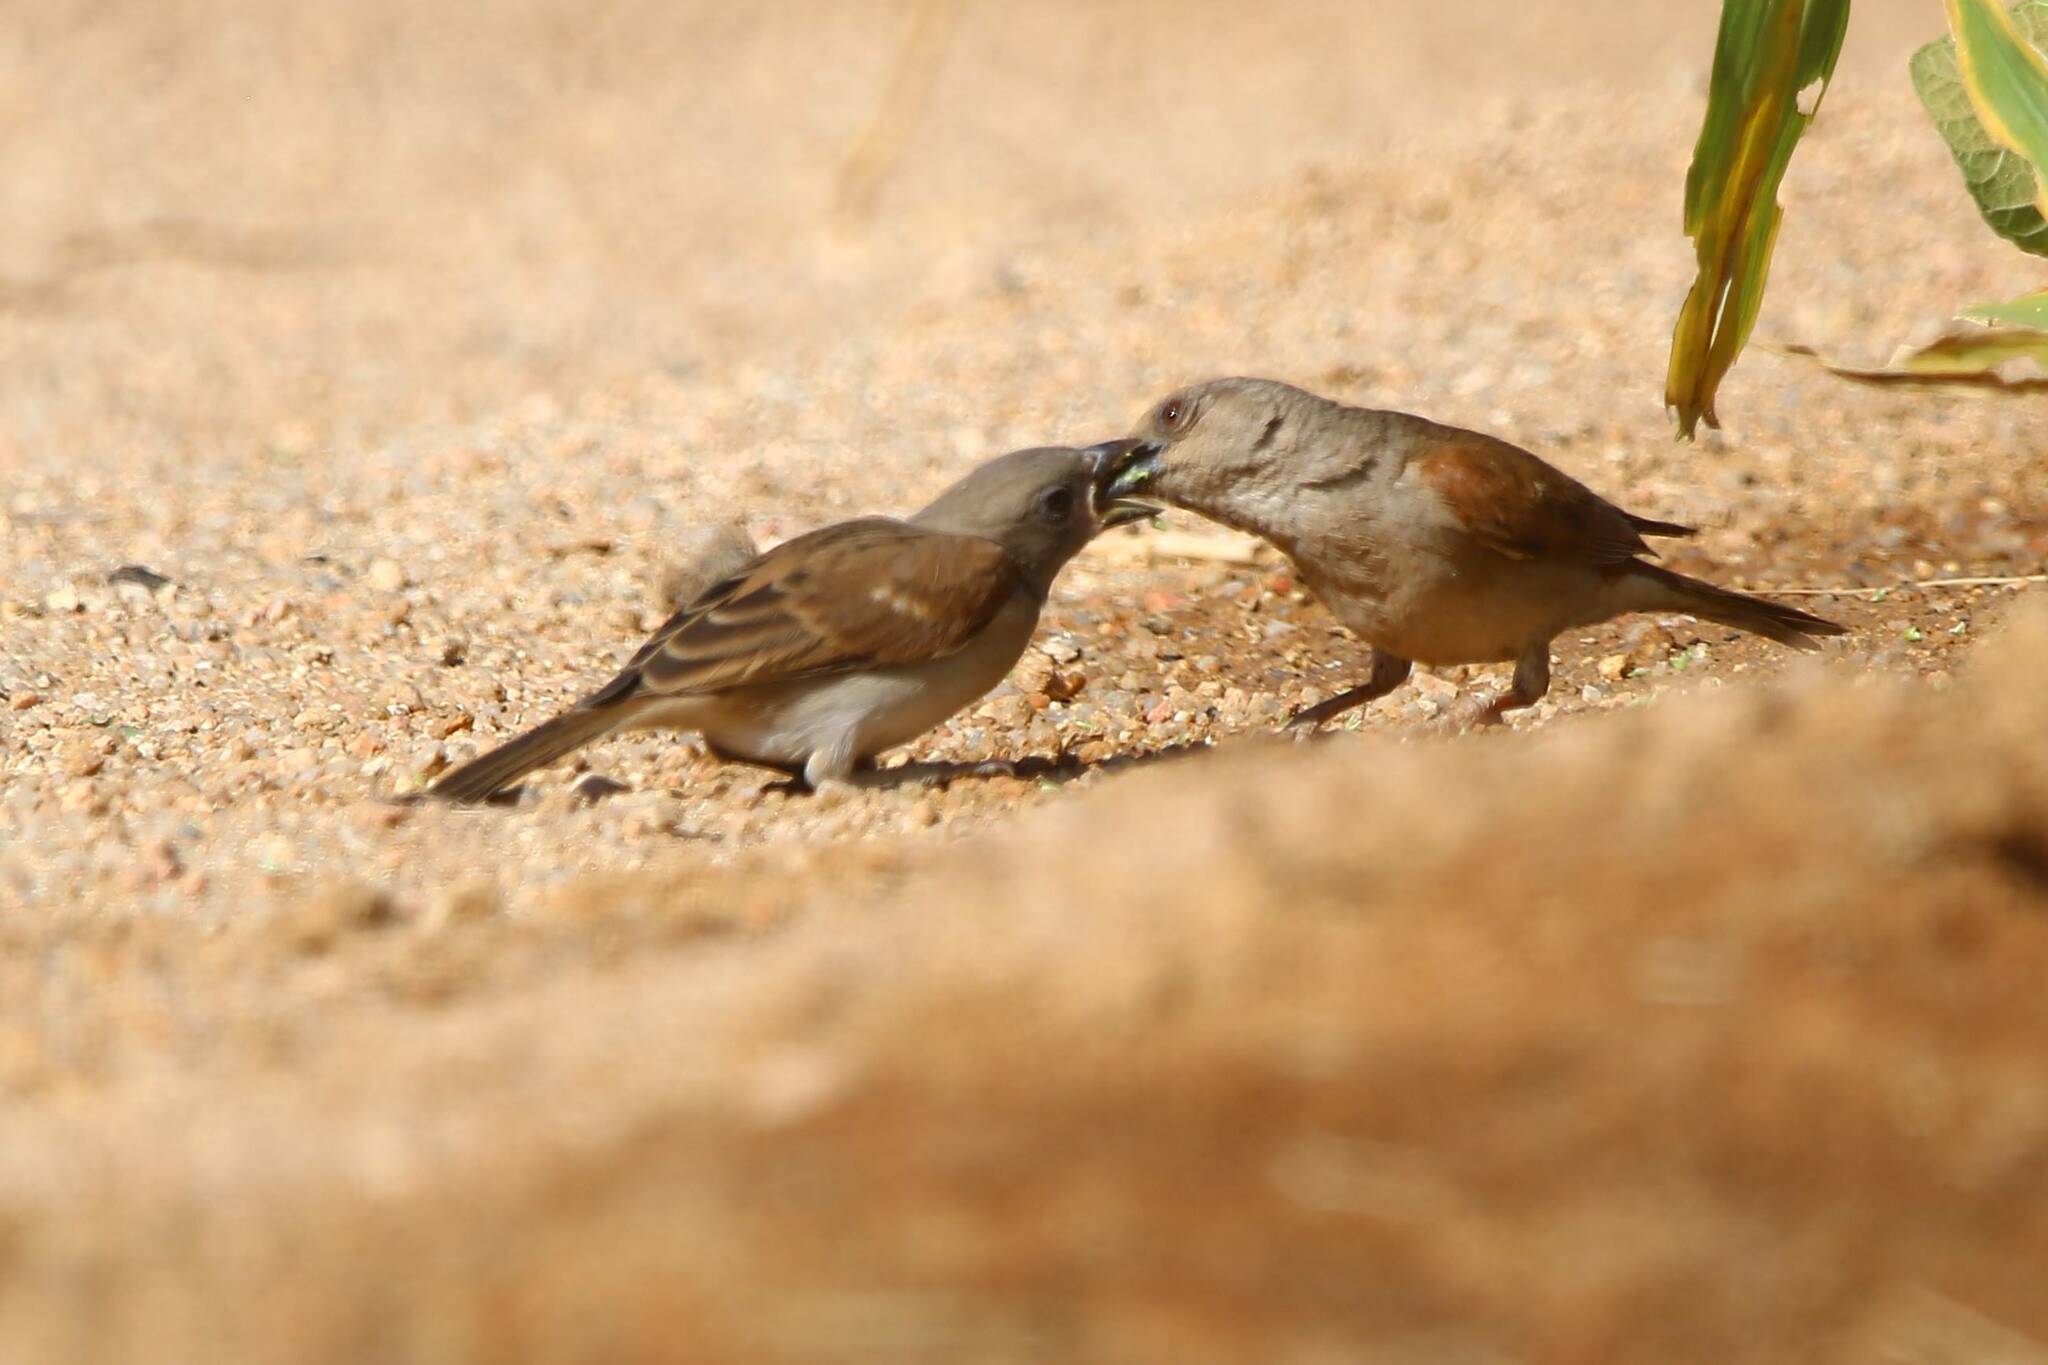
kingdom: Animalia
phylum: Chordata
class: Aves
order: Passeriformes
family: Passeridae
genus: Passer
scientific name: Passer griseus
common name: Northern grey-headed sparrow
